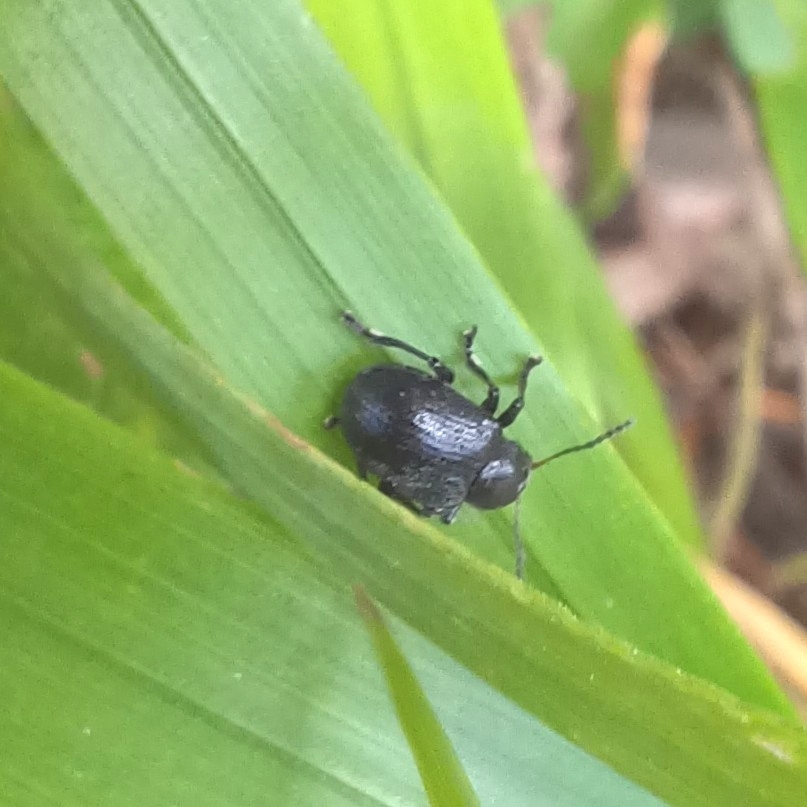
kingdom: Animalia
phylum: Arthropoda
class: Insecta
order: Coleoptera
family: Chrysomelidae
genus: Bromius
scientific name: Bromius obscurus
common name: Western grape rootworm
